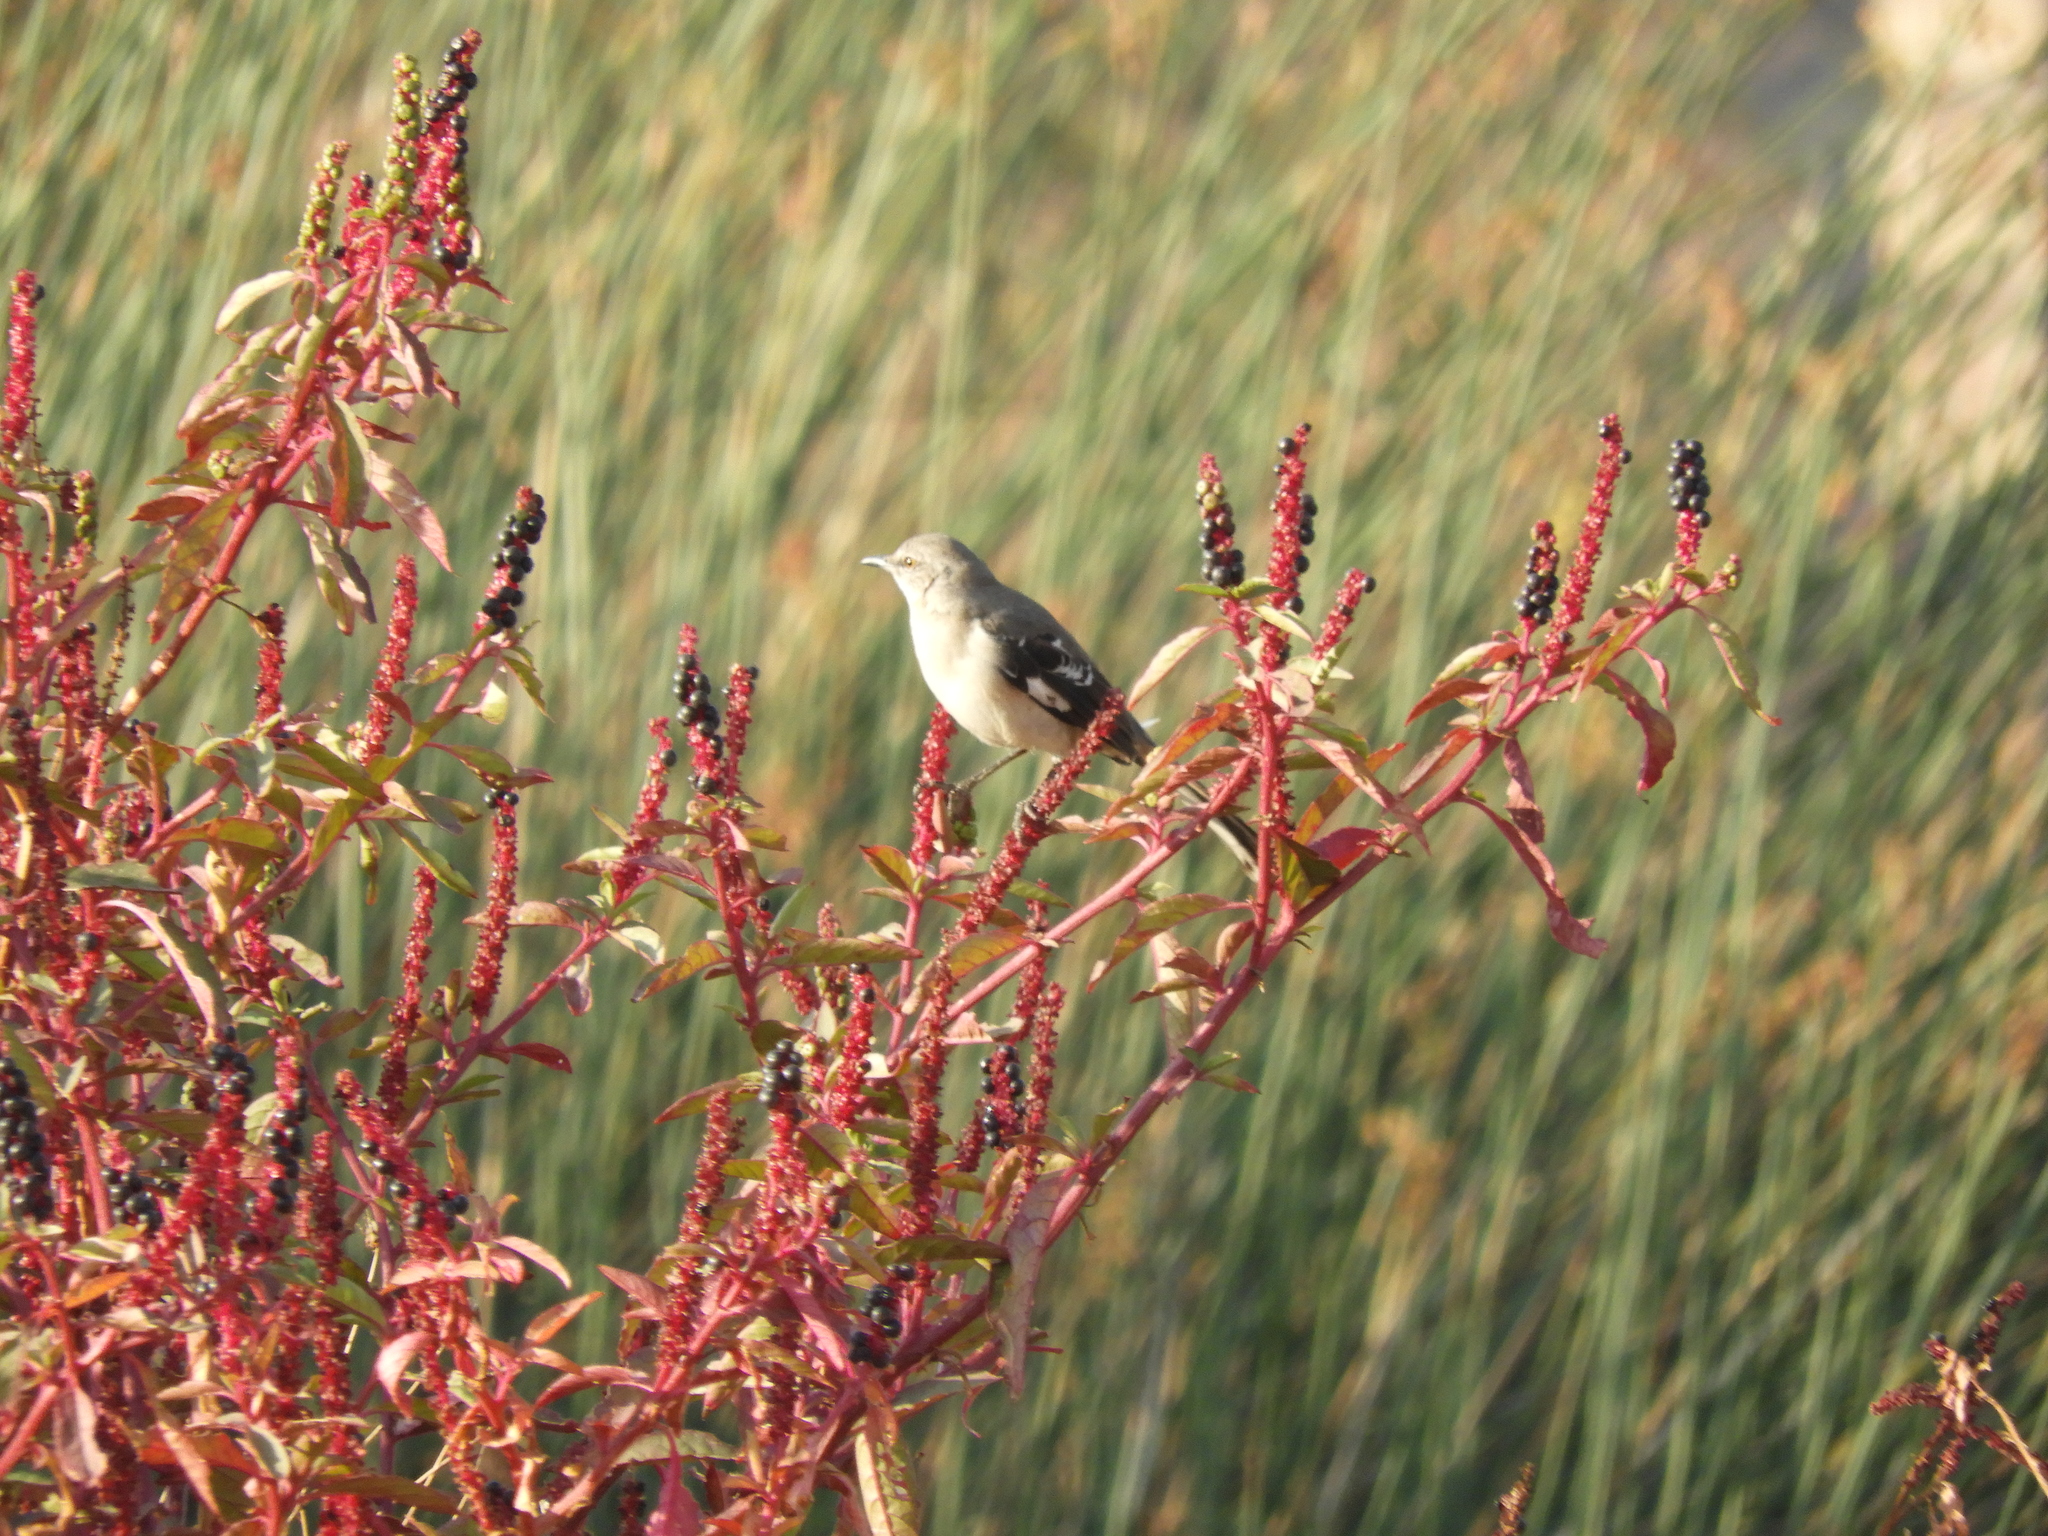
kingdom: Animalia
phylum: Chordata
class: Aves
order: Passeriformes
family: Mimidae
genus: Mimus
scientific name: Mimus polyglottos
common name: Northern mockingbird
